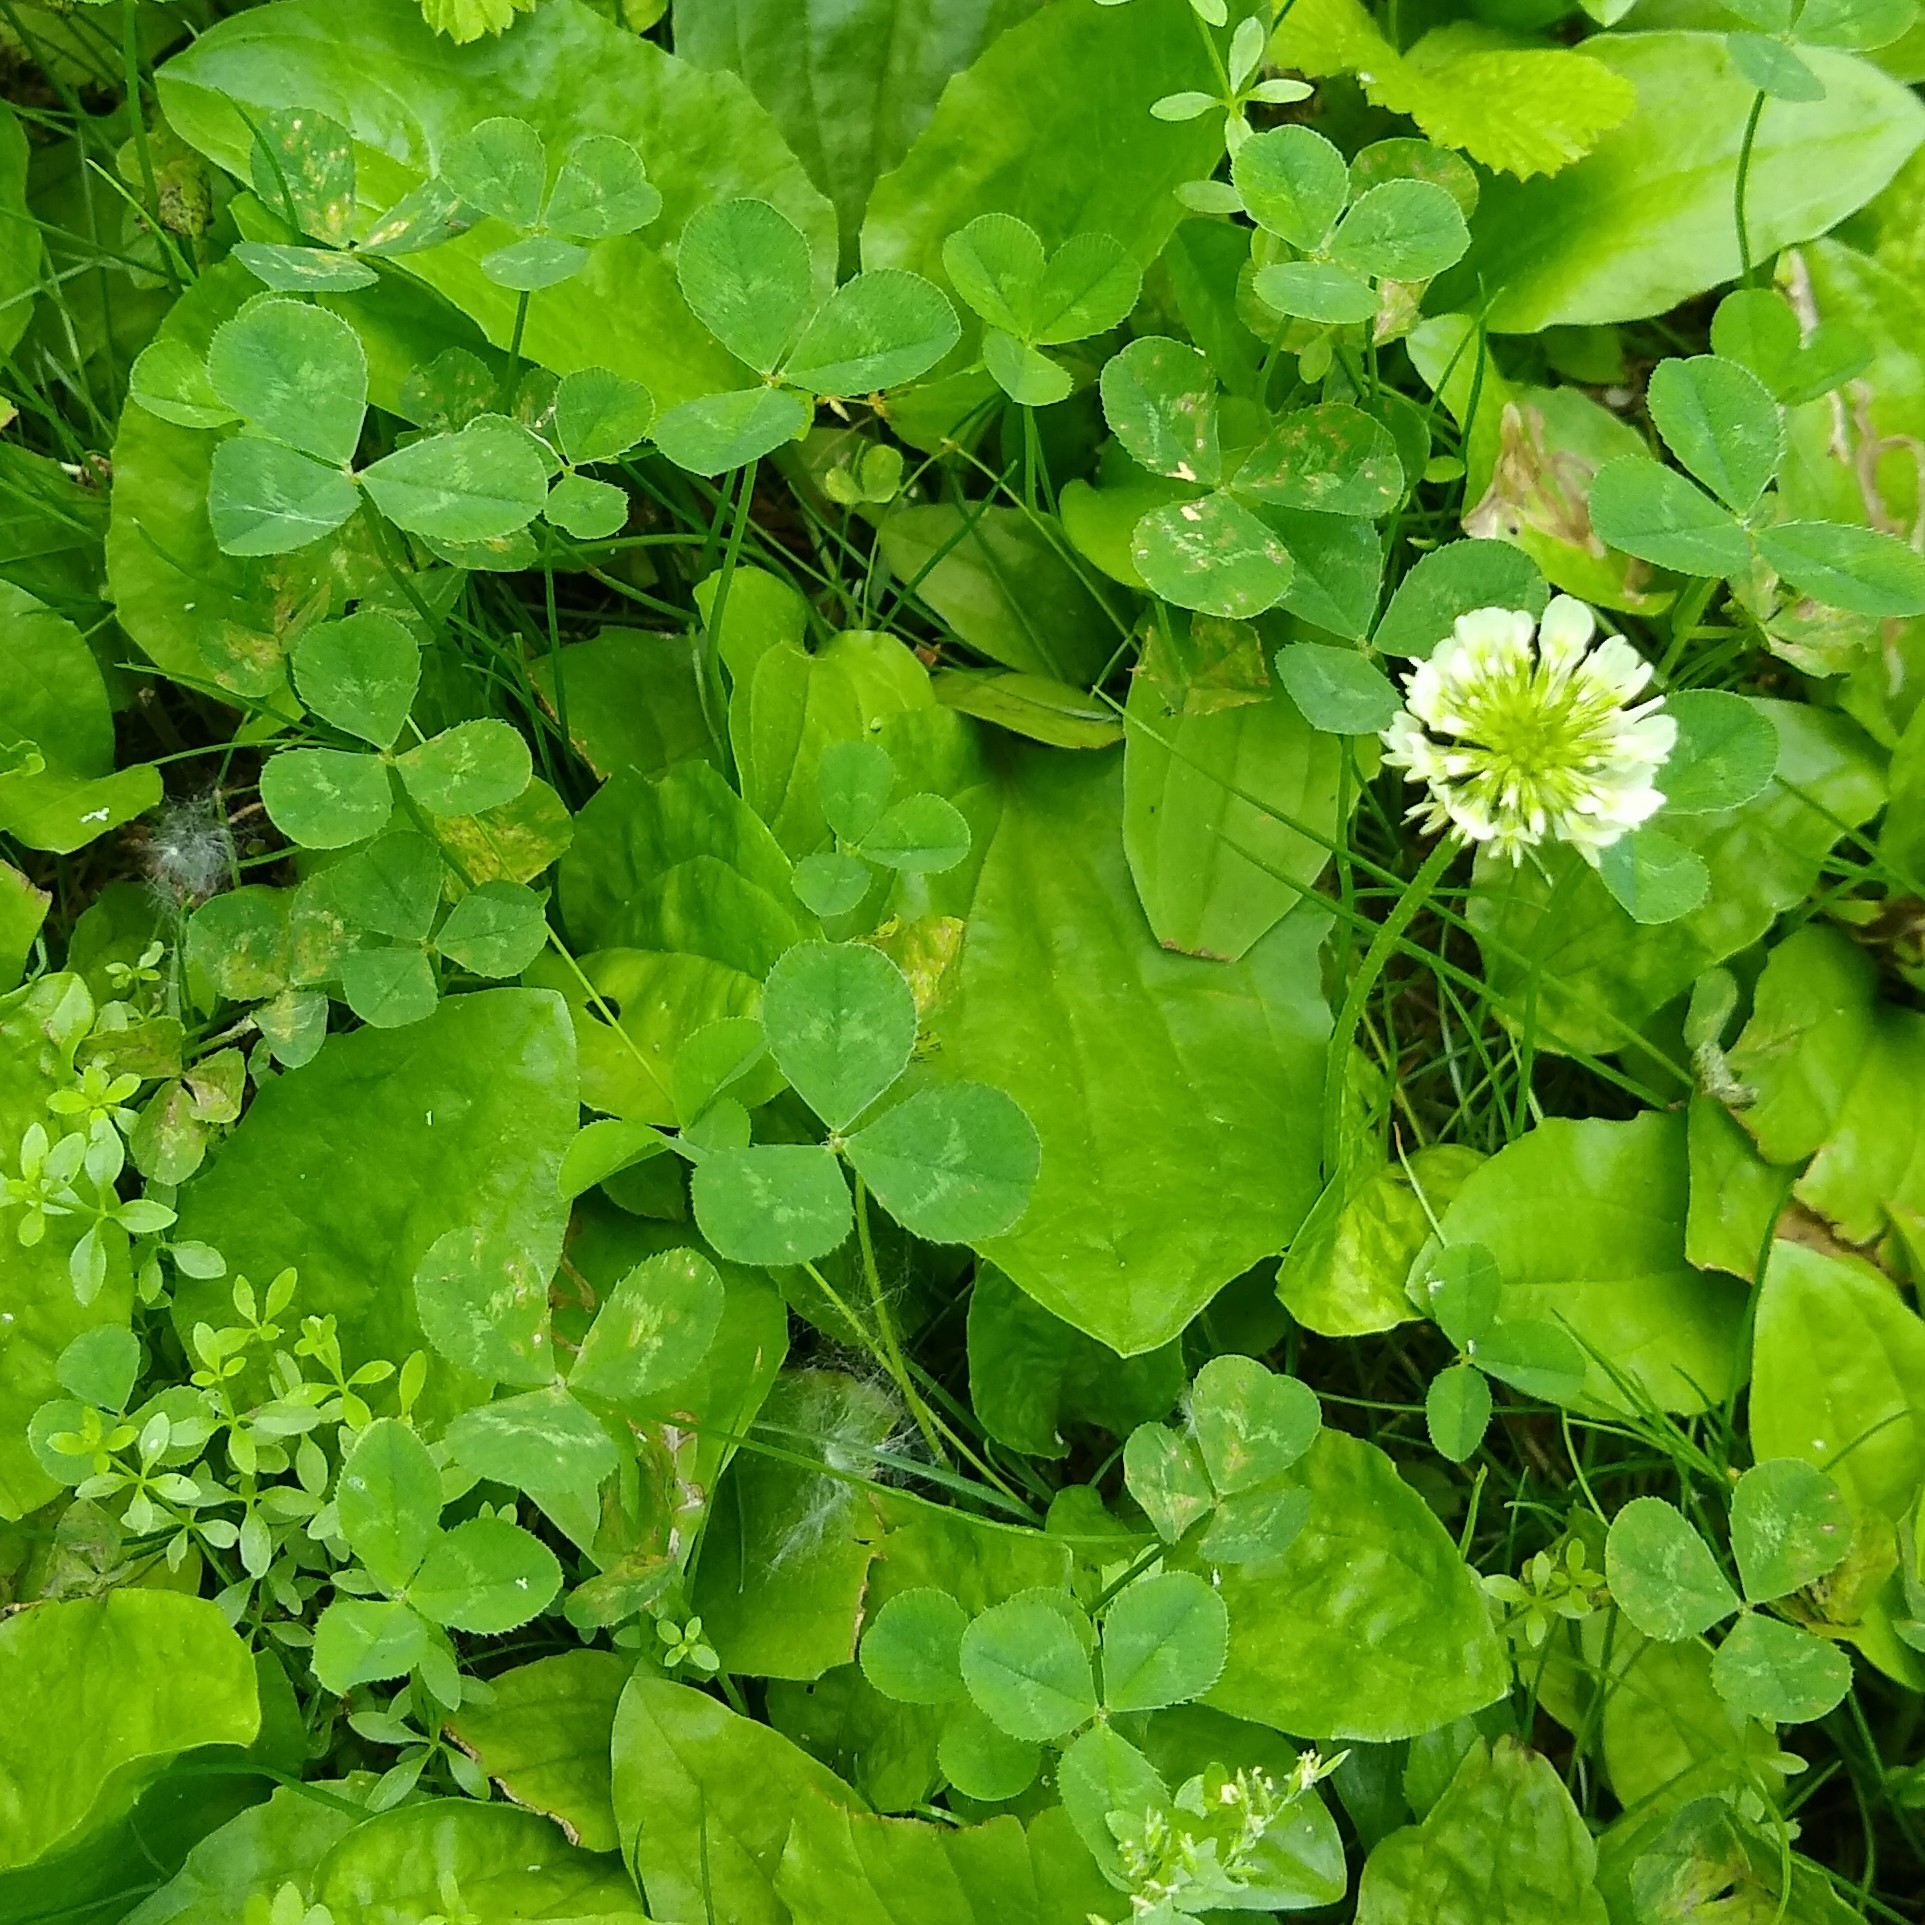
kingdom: Plantae
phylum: Tracheophyta
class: Magnoliopsida
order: Fabales
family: Fabaceae
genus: Trifolium
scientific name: Trifolium repens
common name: White clover
